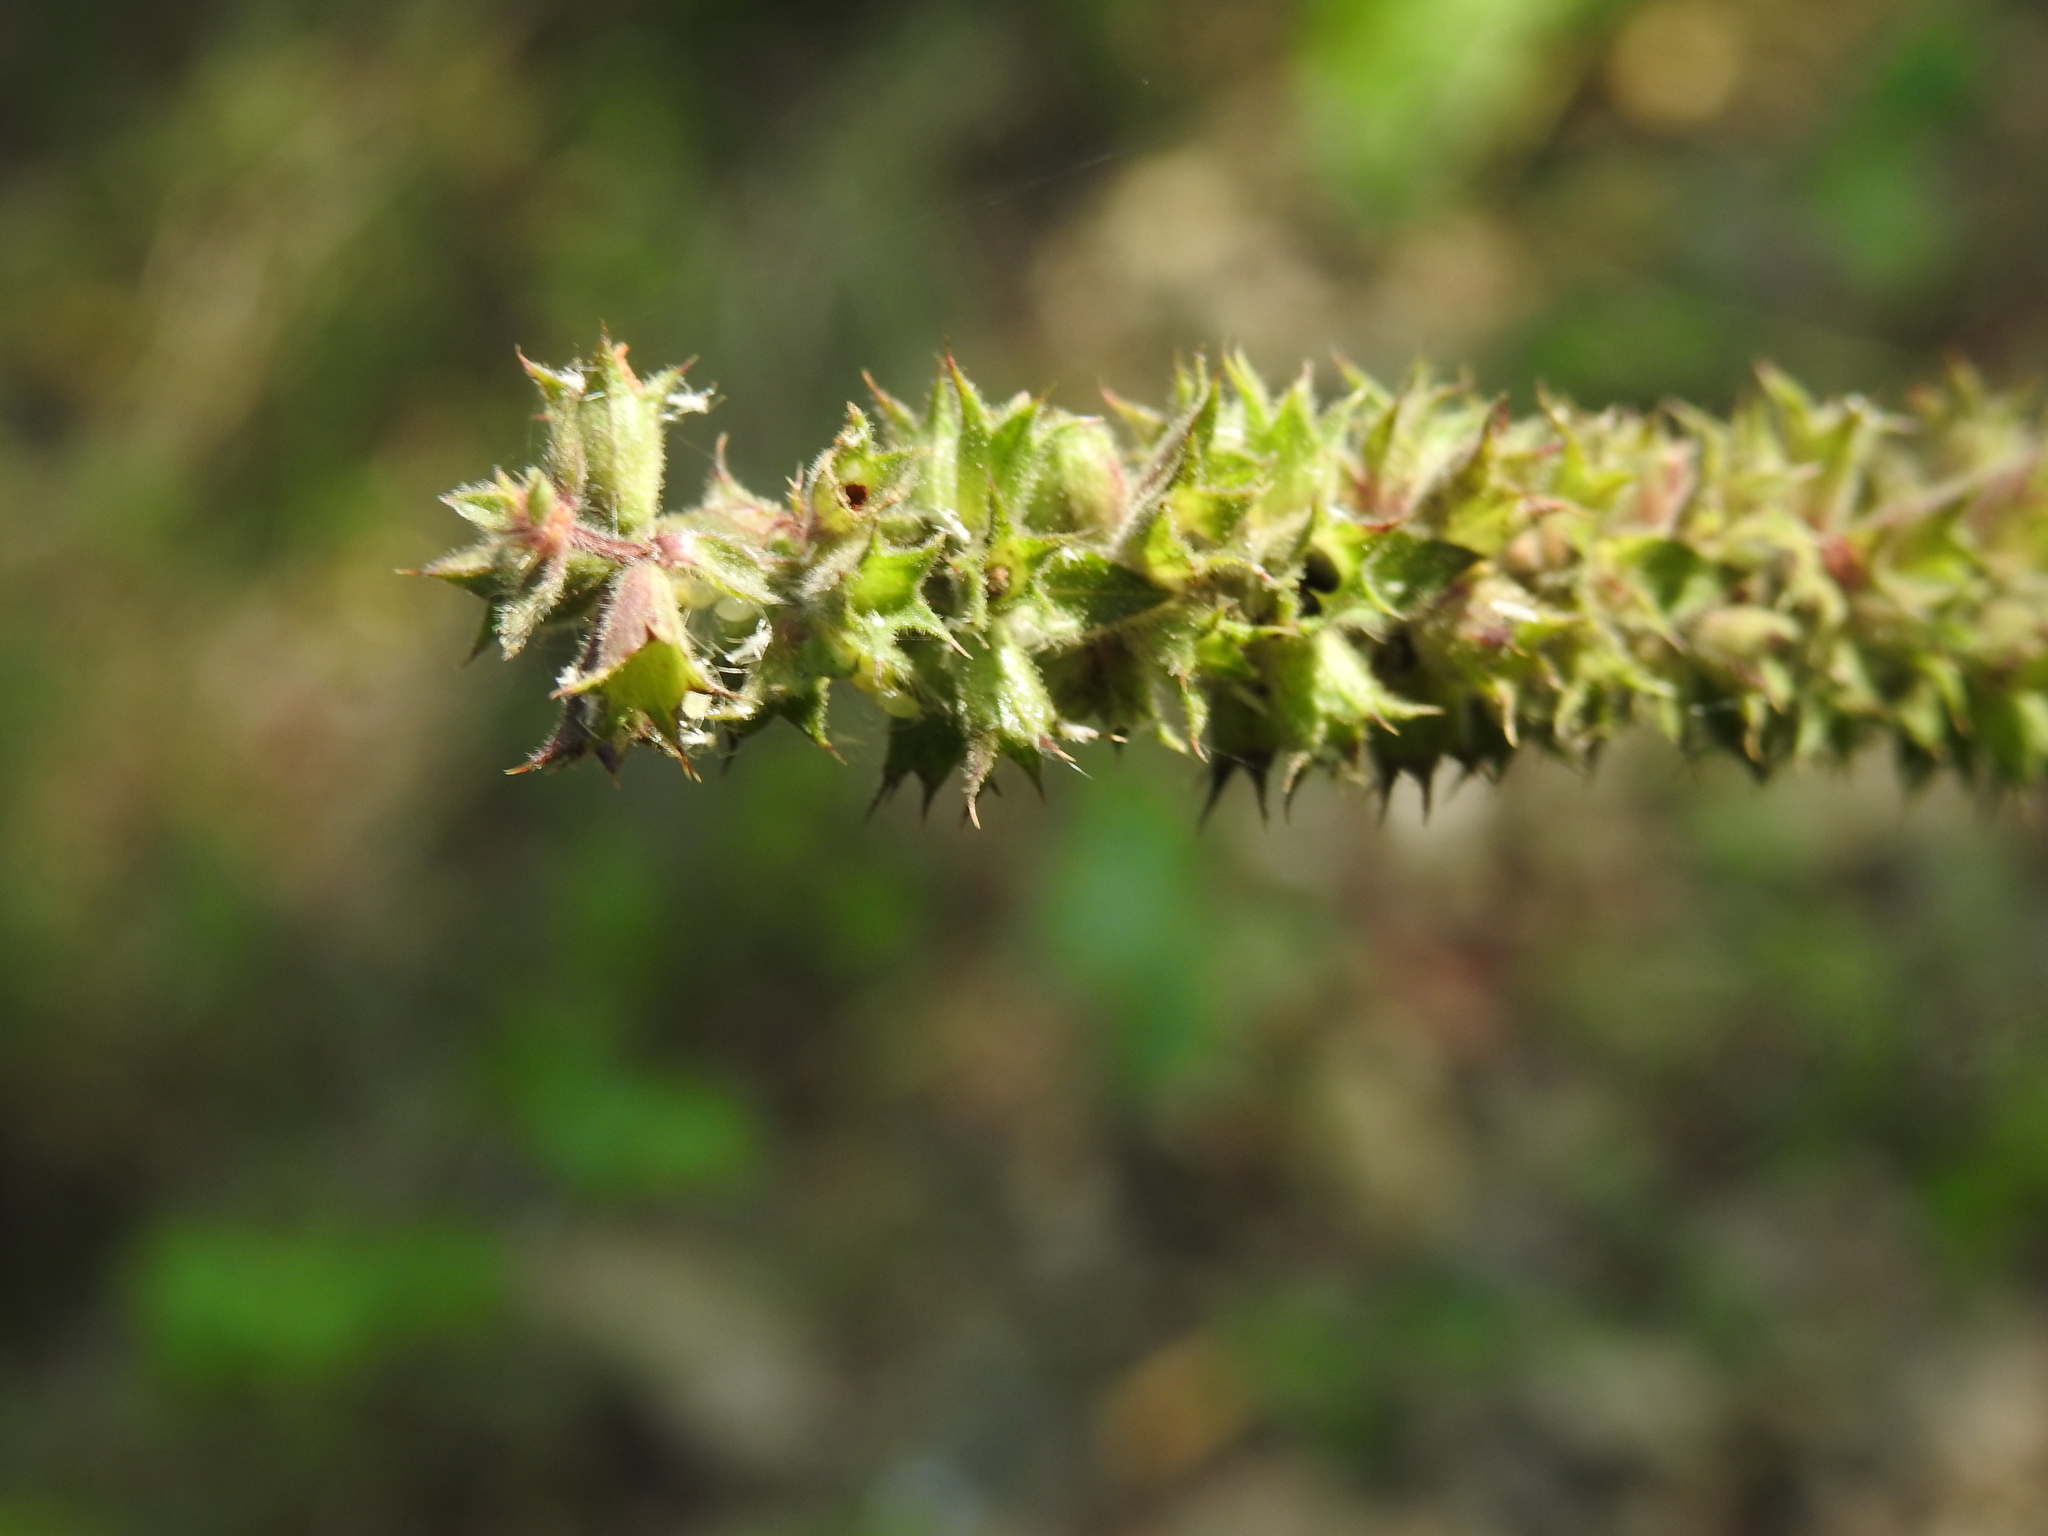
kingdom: Plantae
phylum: Tracheophyta
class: Magnoliopsida
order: Lamiales
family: Lamiaceae
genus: Stachys
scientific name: Stachys palustris
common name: Marsh woundwort
